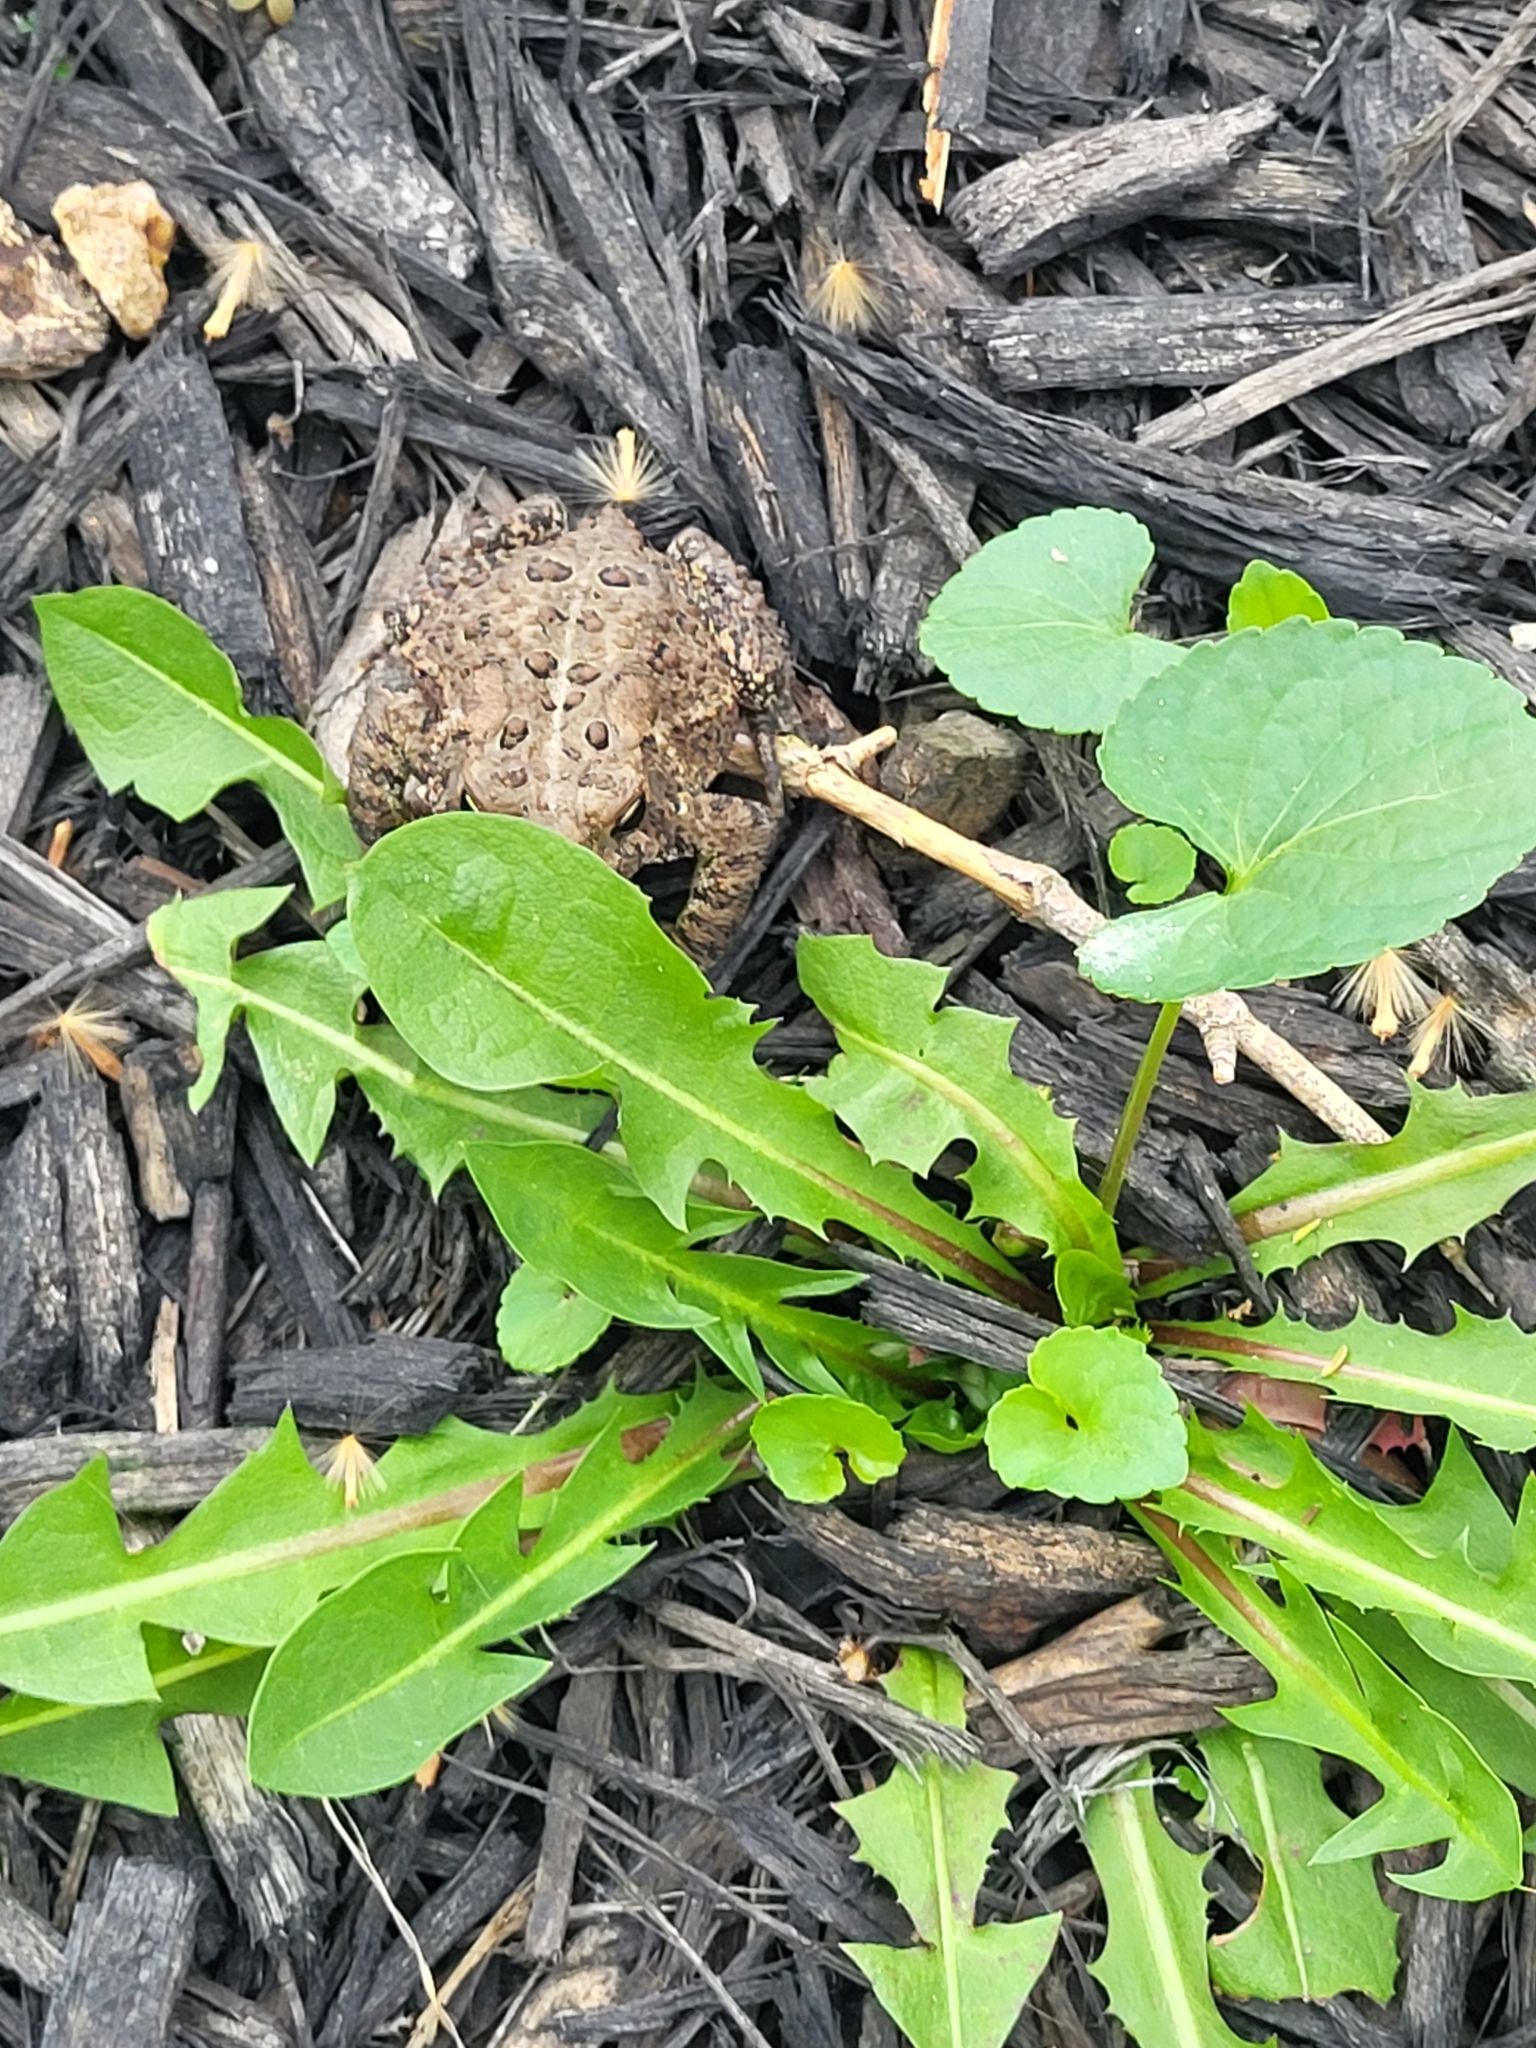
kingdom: Animalia
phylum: Chordata
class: Amphibia
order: Anura
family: Bufonidae
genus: Anaxyrus
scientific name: Anaxyrus americanus
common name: American toad
